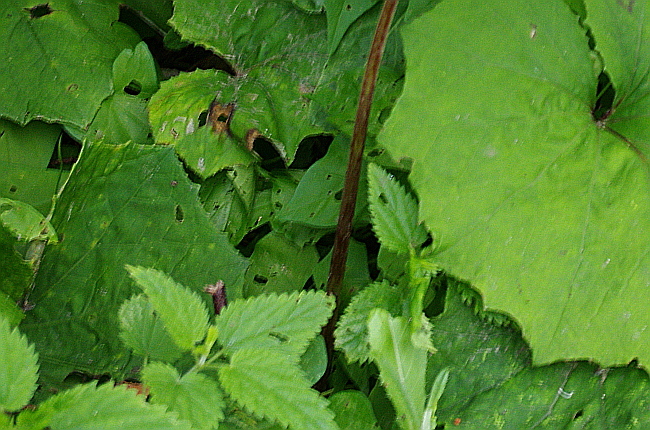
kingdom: Plantae
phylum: Tracheophyta
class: Magnoliopsida
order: Rosales
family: Urticaceae
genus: Urtica
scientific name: Urtica dioica
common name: Common nettle
